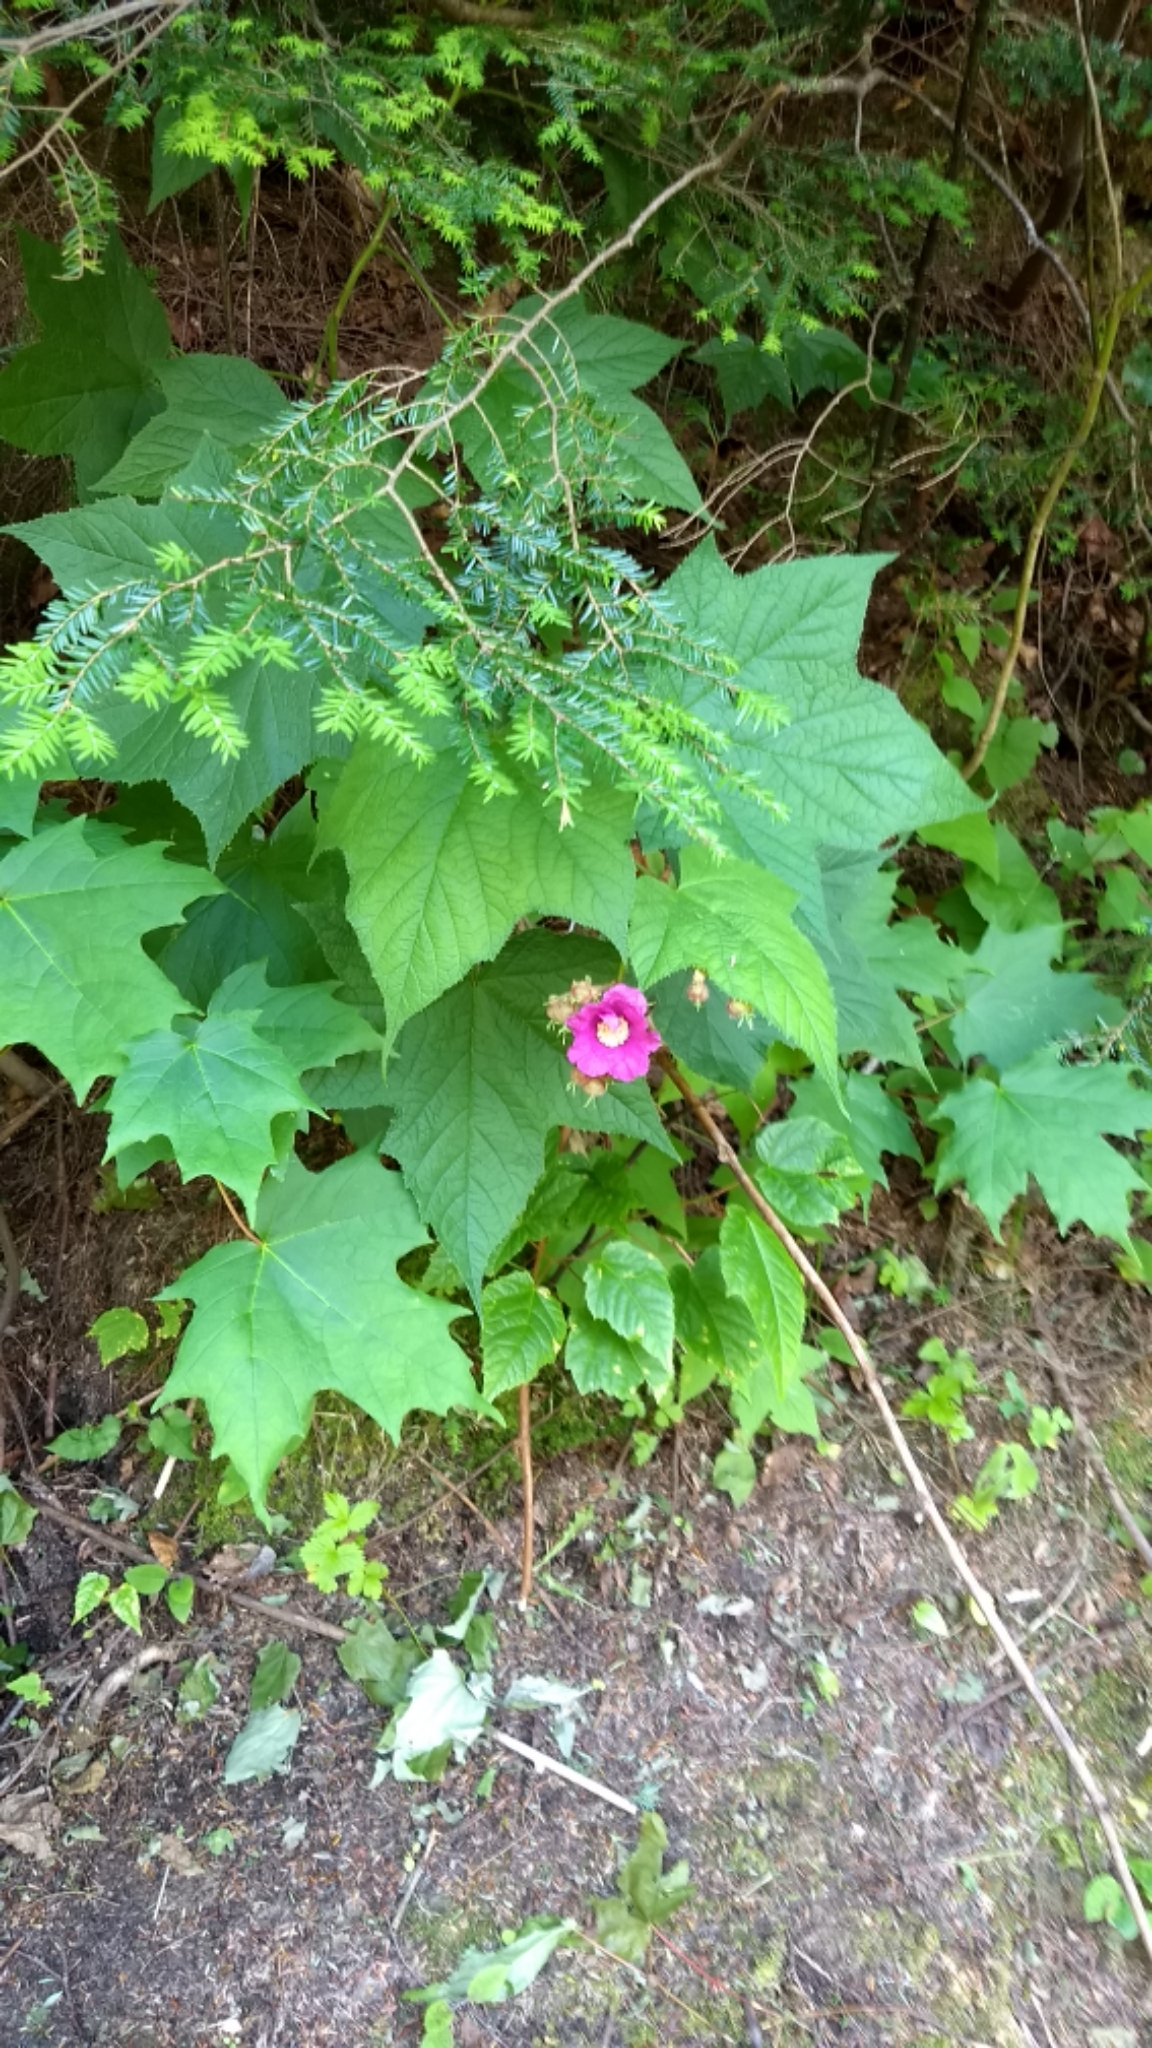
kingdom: Plantae
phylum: Tracheophyta
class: Magnoliopsida
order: Rosales
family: Rosaceae
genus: Rubus
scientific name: Rubus odoratus
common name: Purple-flowered raspberry
